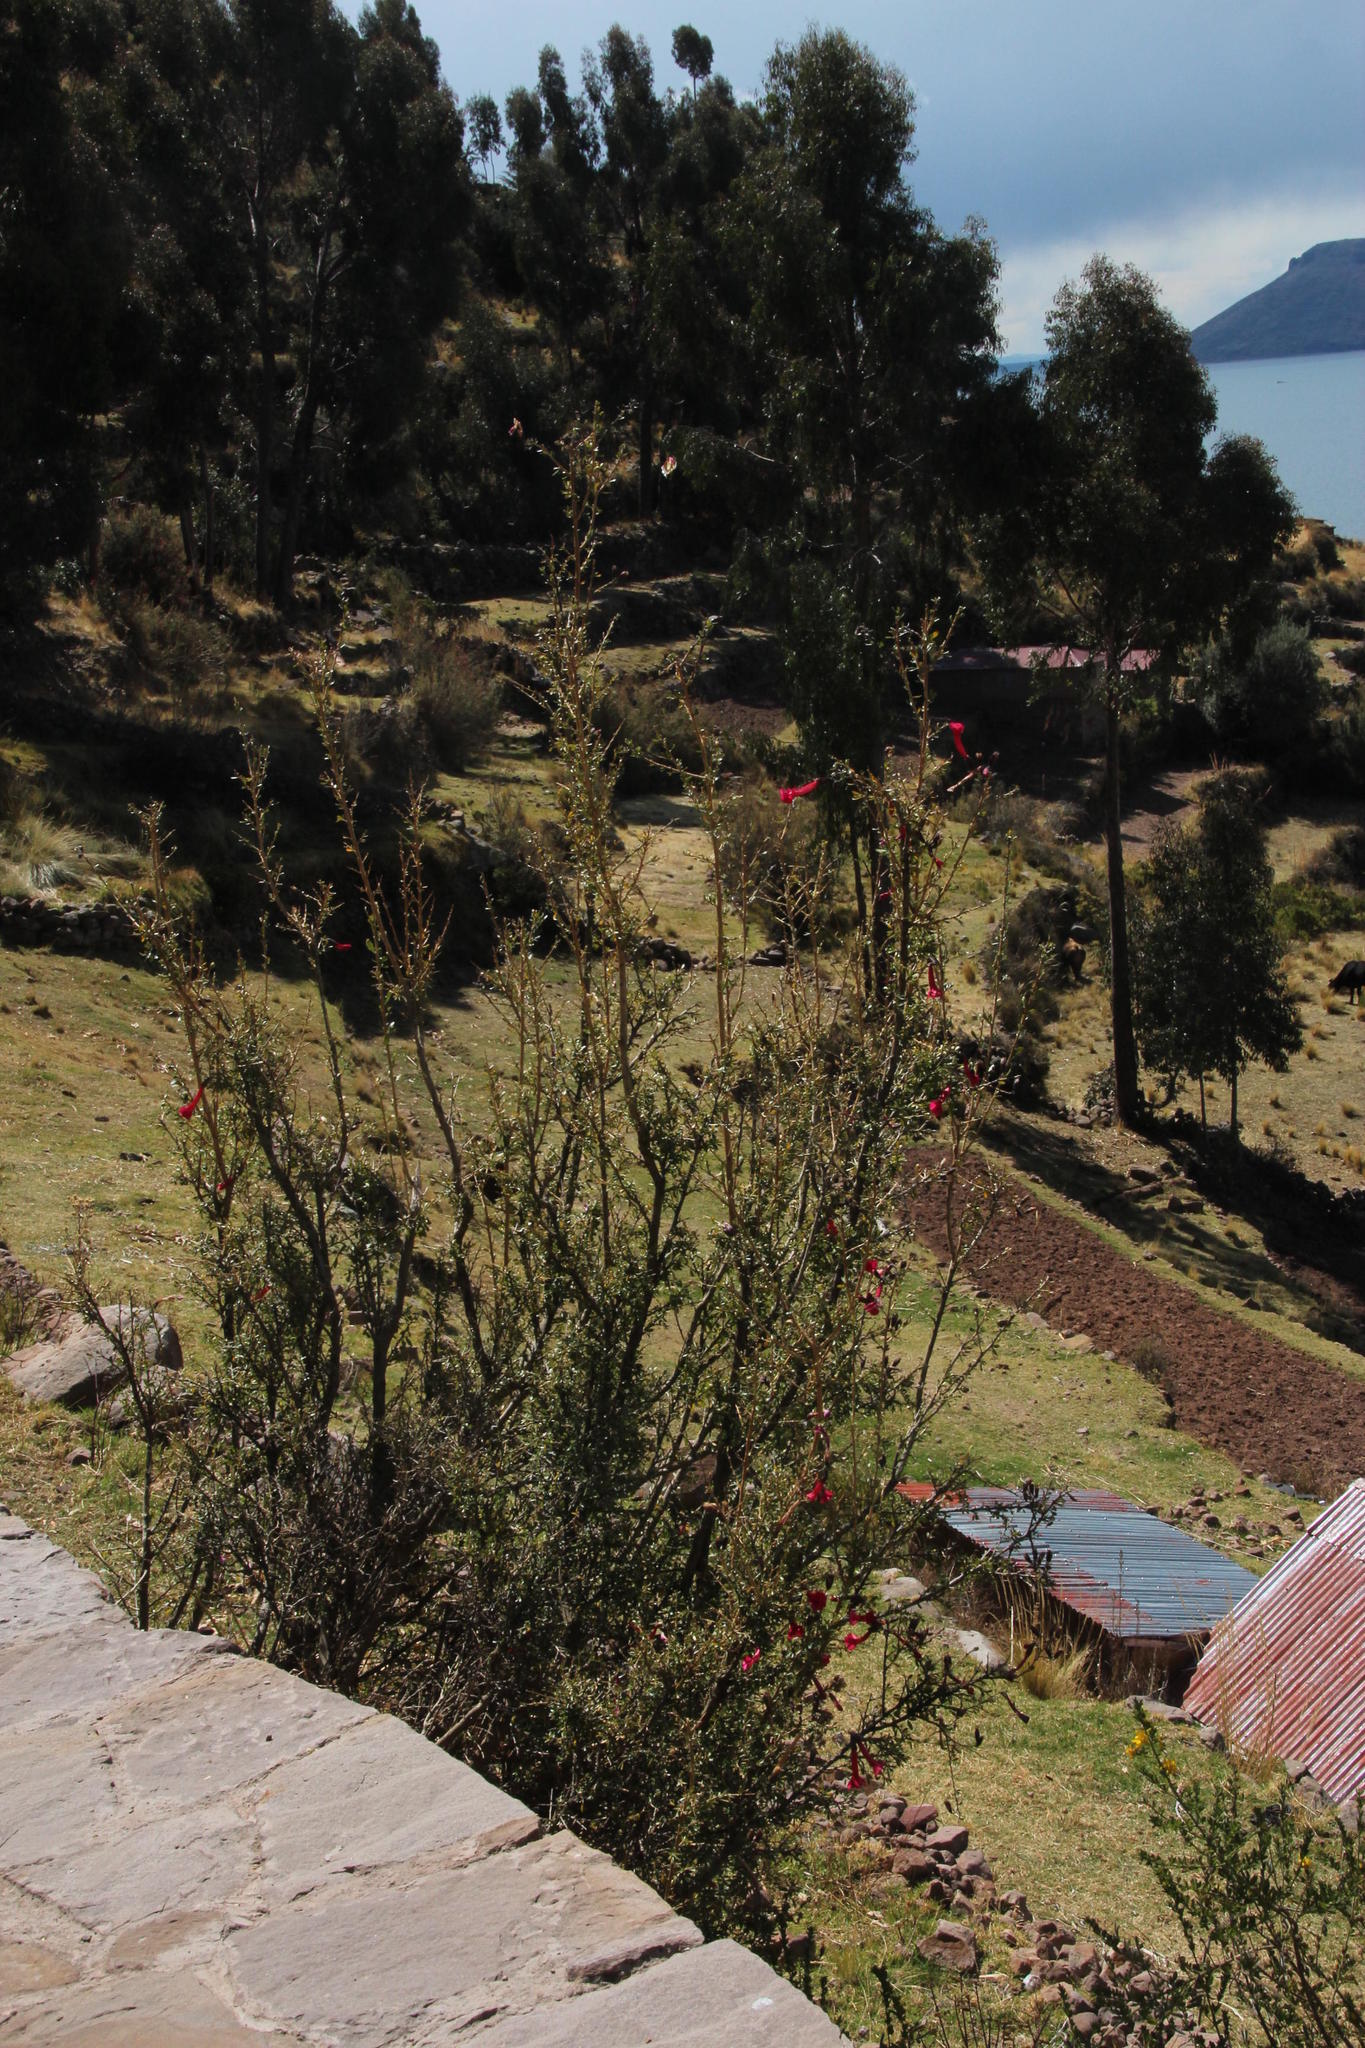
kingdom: Plantae
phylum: Tracheophyta
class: Magnoliopsida
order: Ericales
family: Polemoniaceae
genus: Cantua
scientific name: Cantua buxifolia
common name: Sacred-flower-of-the-incas
